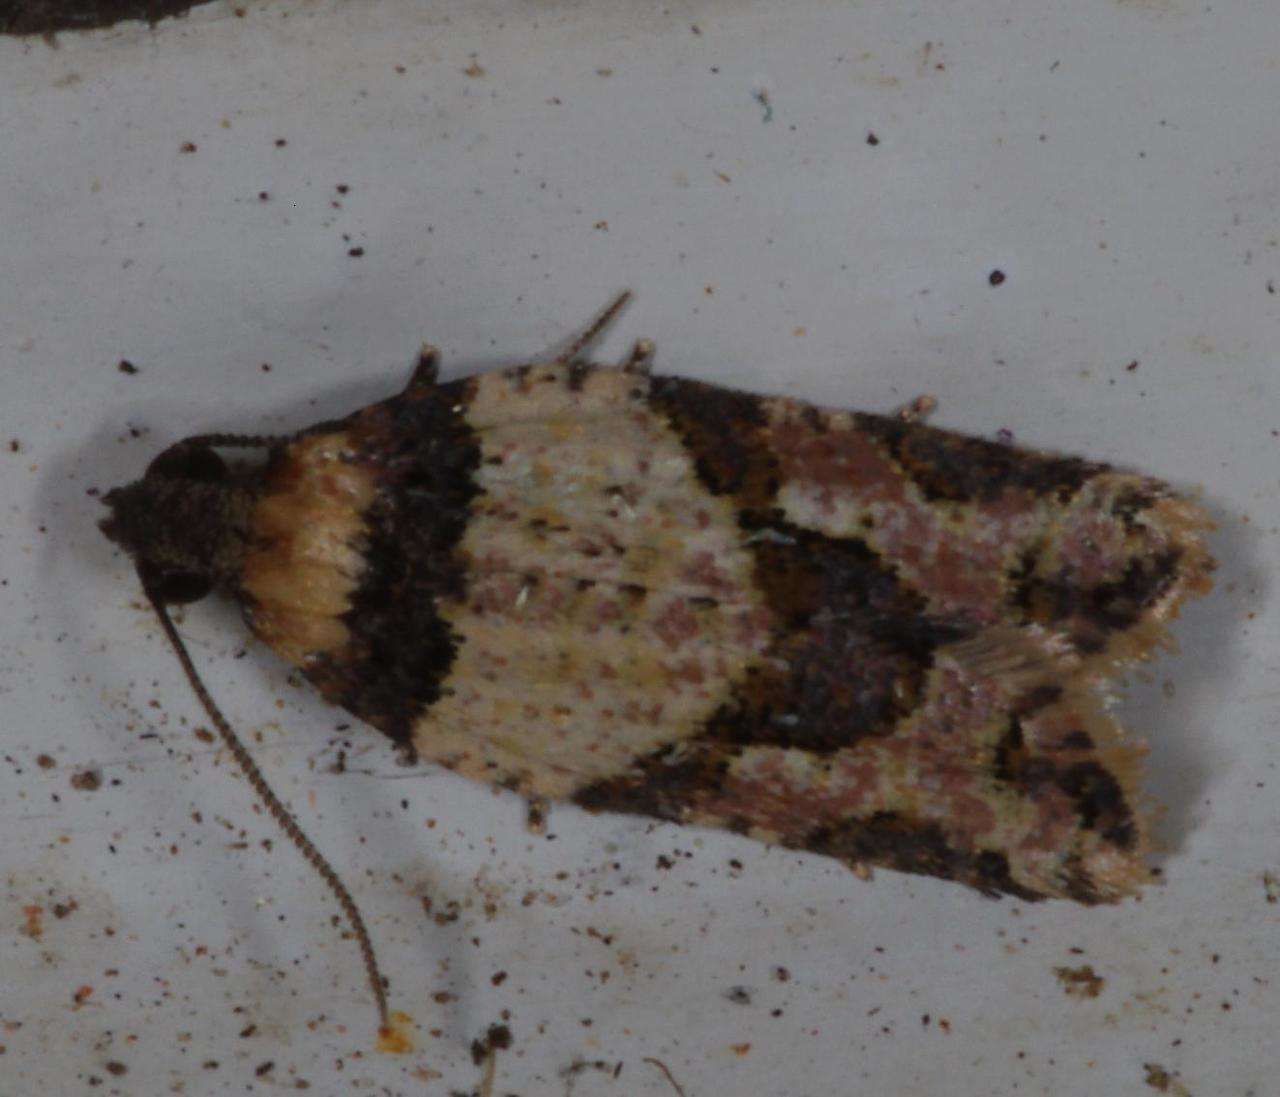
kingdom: Animalia
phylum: Arthropoda
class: Insecta
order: Lepidoptera
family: Tortricidae
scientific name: Tortricidae
